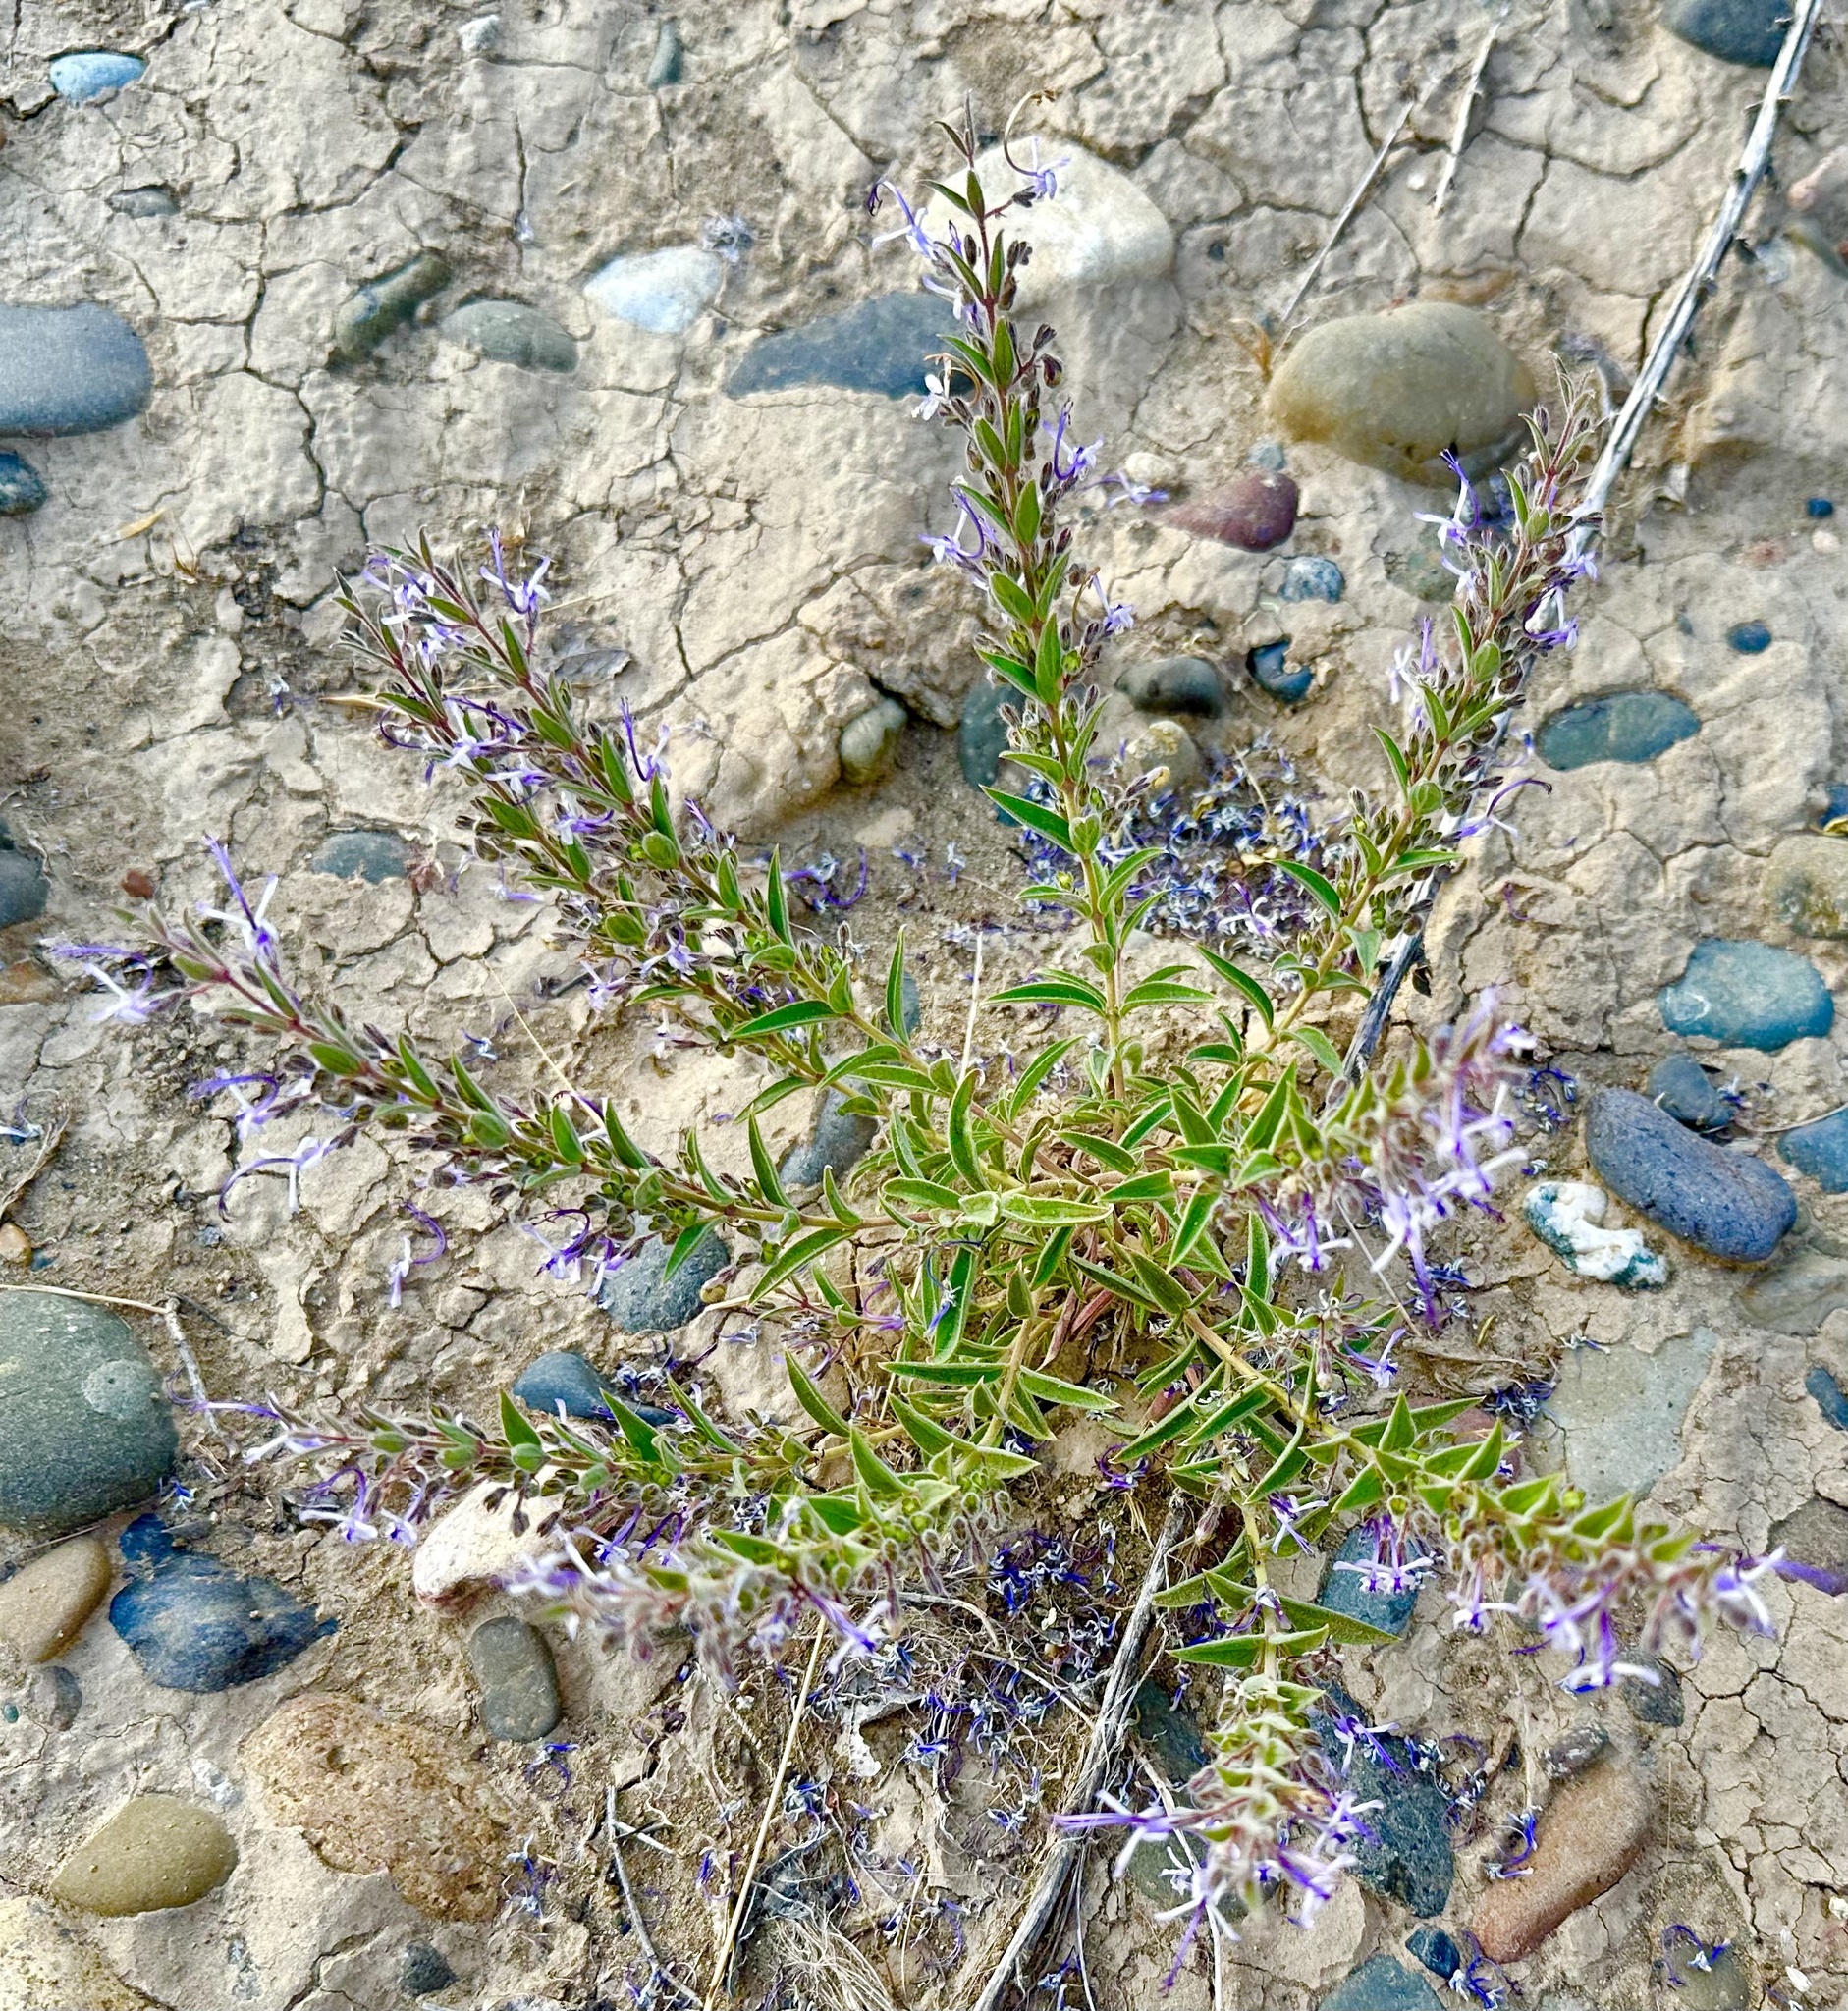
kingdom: Plantae
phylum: Tracheophyta
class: Magnoliopsida
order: Lamiales
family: Lamiaceae
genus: Trichostema
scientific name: Trichostema lanceolatum
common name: Vinegar-weed
